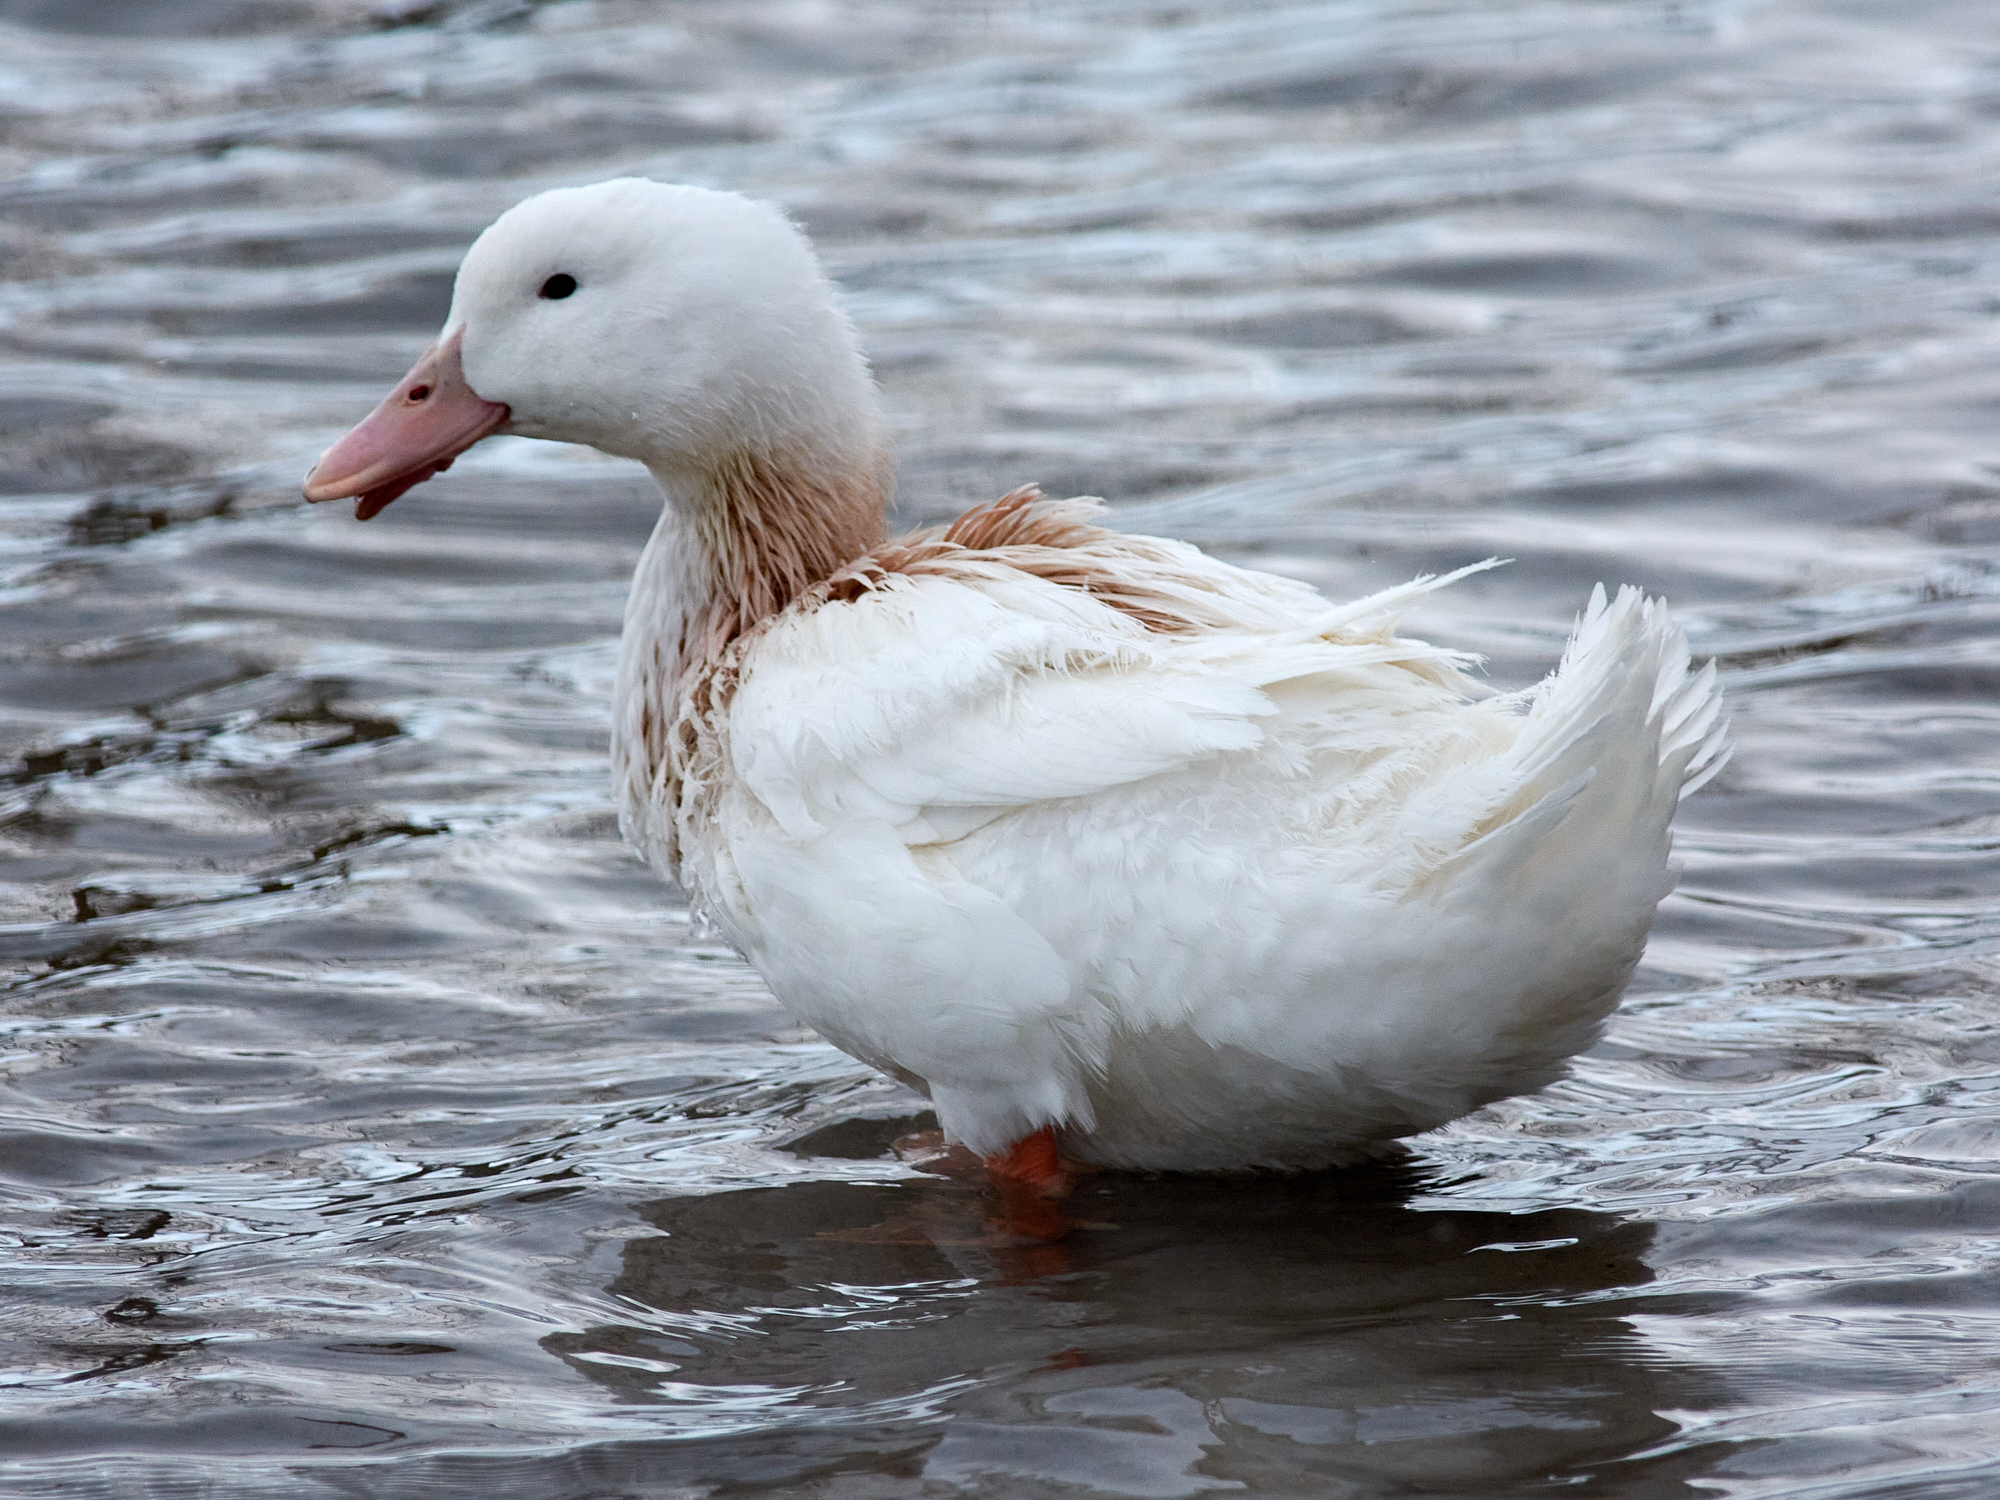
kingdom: Animalia
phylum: Chordata
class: Aves
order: Anseriformes
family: Anatidae
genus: Anas
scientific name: Anas platyrhynchos
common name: Mallard
